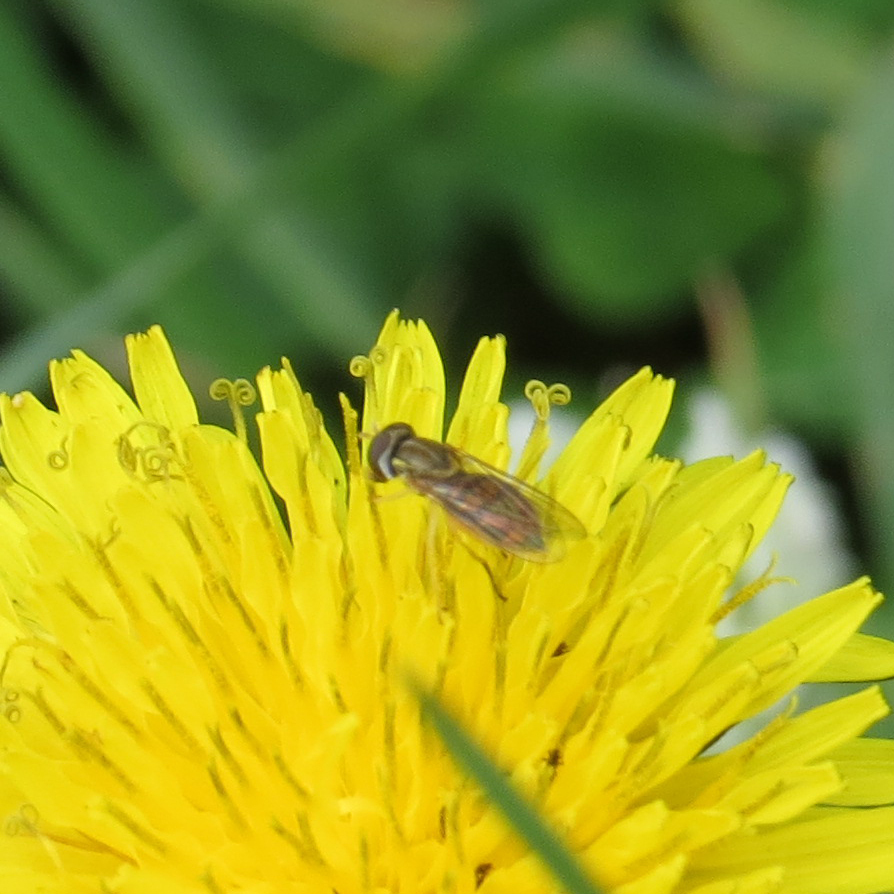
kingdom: Animalia
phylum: Arthropoda
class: Insecta
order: Diptera
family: Syrphidae
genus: Toxomerus
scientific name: Toxomerus marginatus
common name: Syrphid fly
